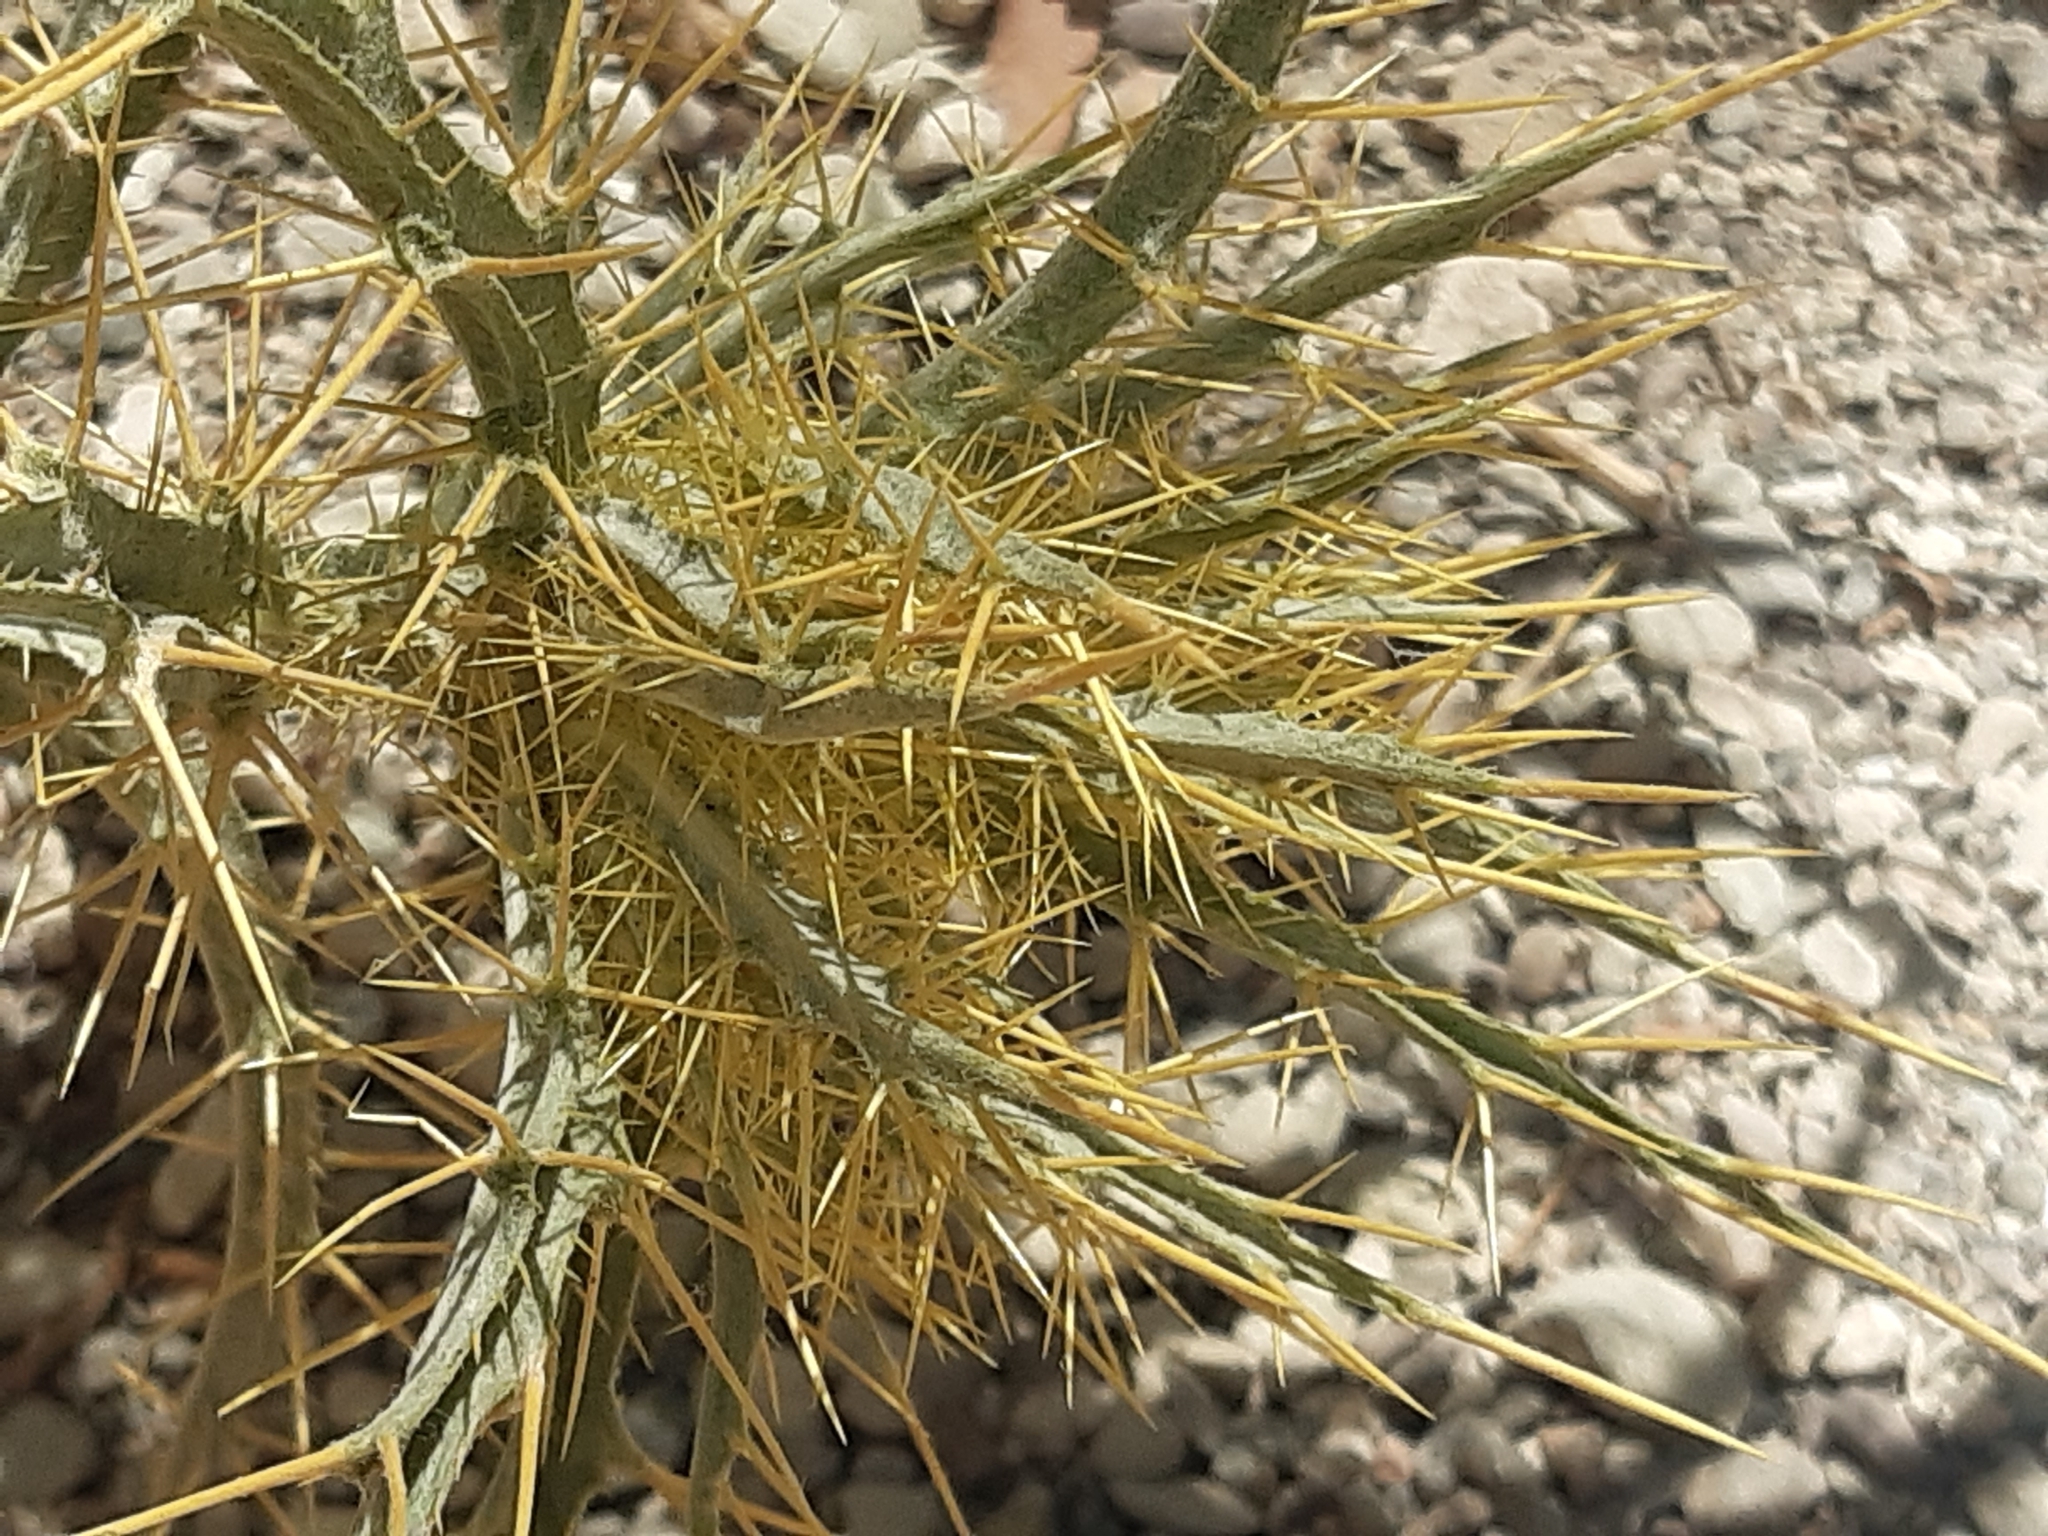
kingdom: Plantae
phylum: Tracheophyta
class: Magnoliopsida
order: Asterales
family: Asteraceae
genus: Picnomon
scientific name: Picnomon acarna
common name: Soldier thistle
